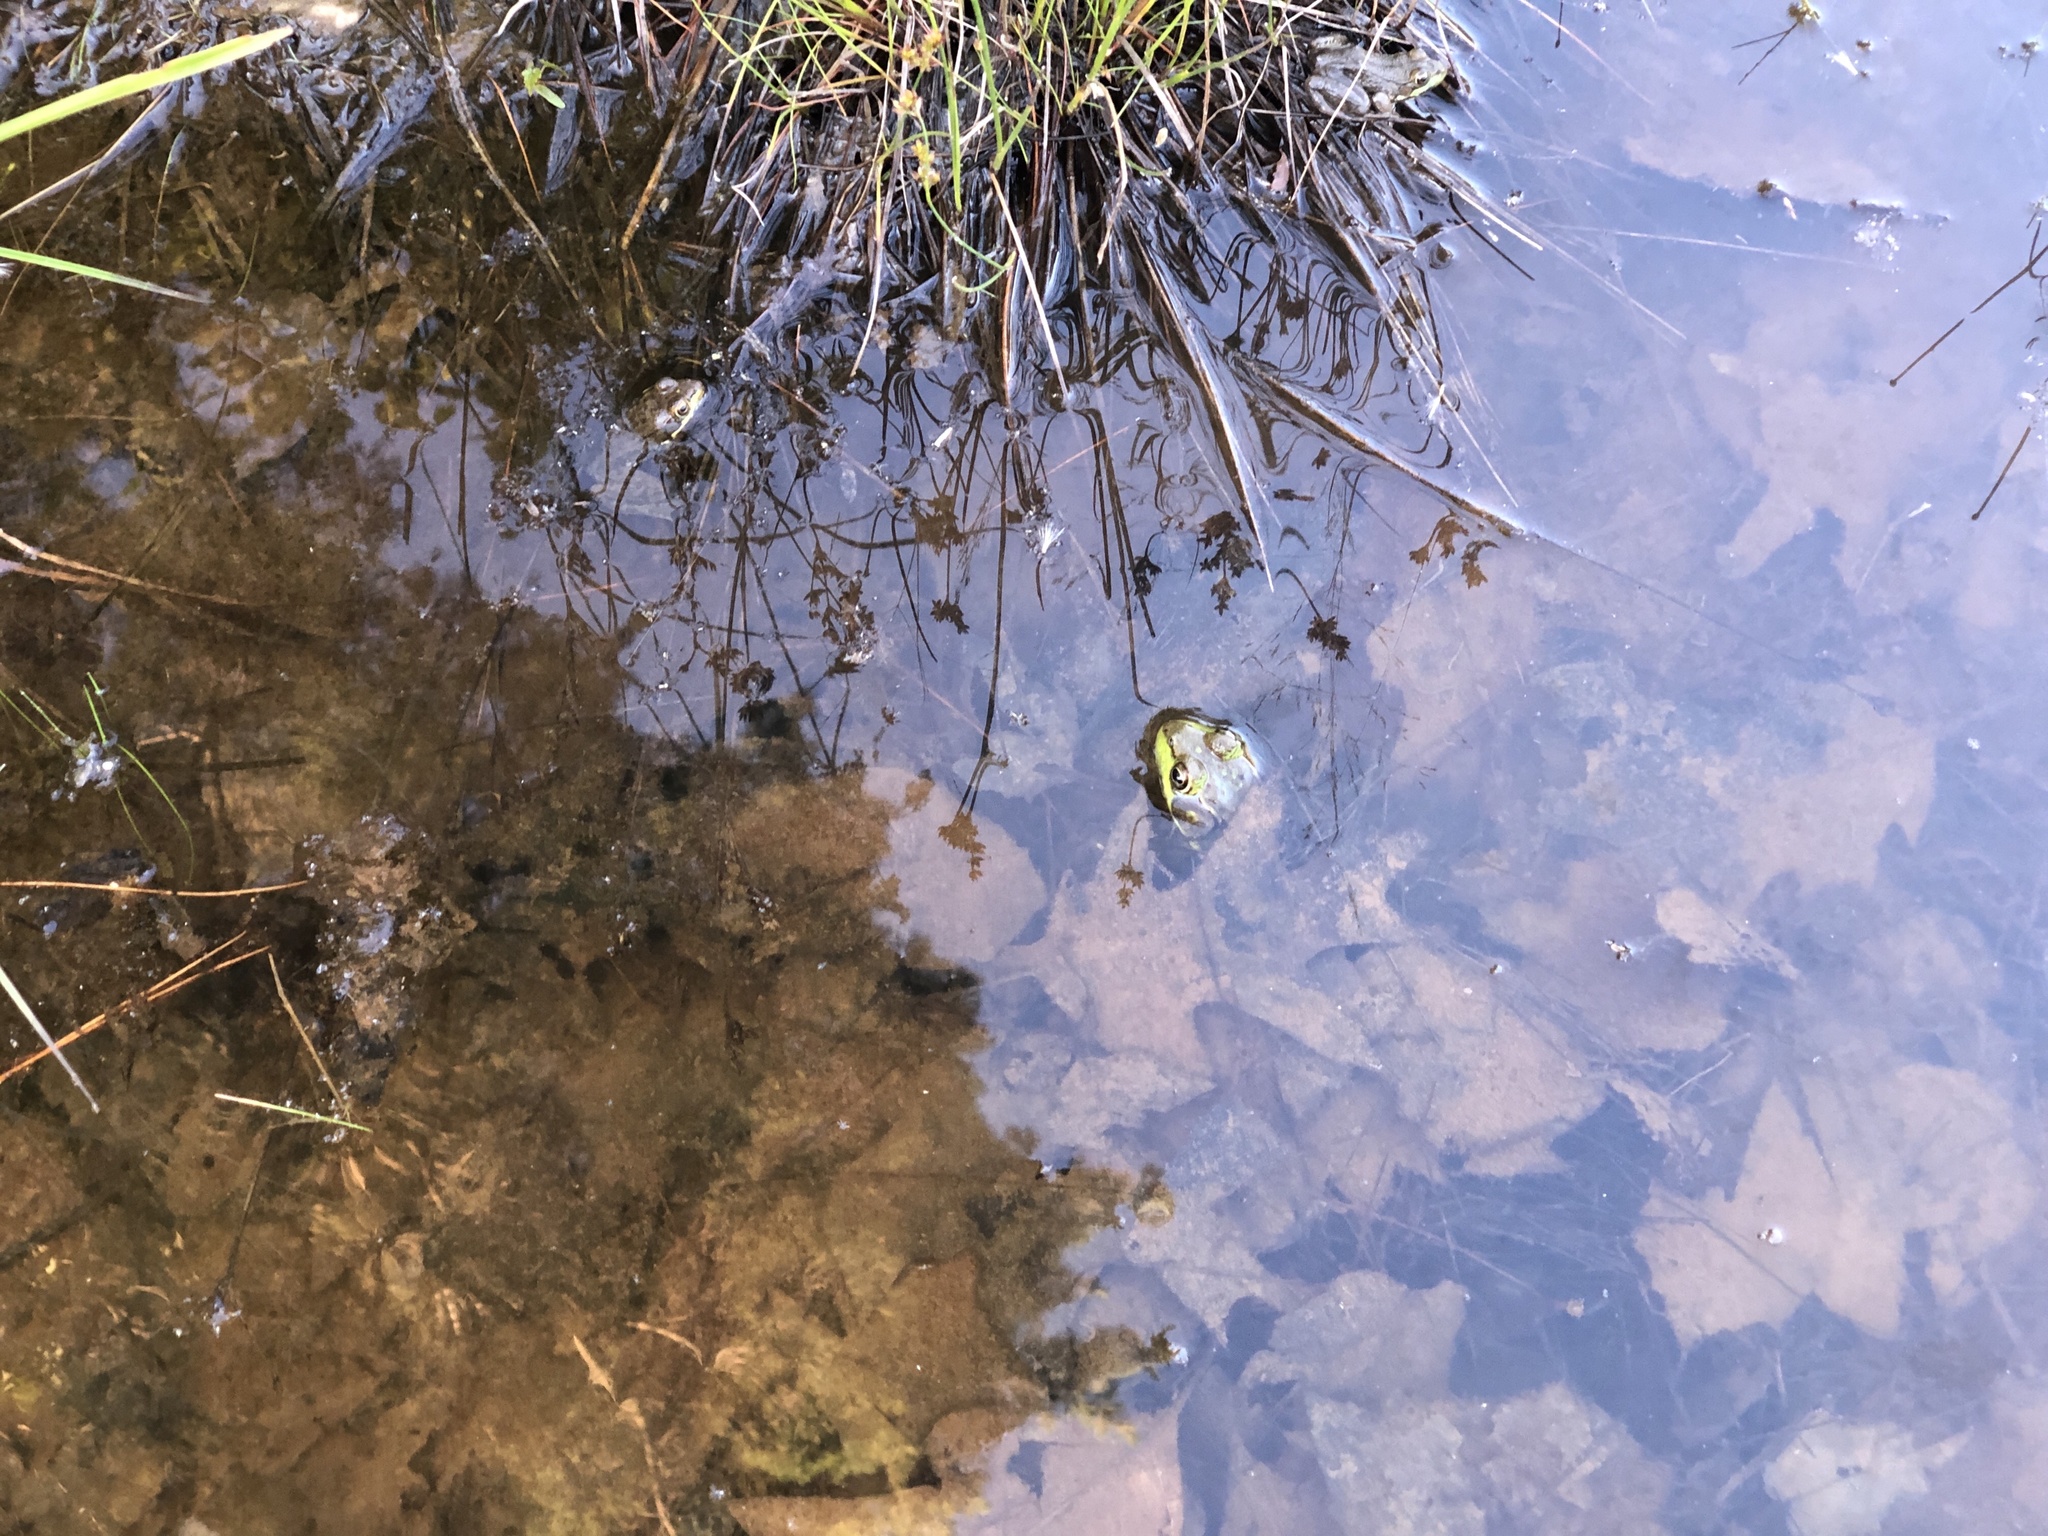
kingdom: Animalia
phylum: Chordata
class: Amphibia
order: Anura
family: Ranidae
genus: Lithobates
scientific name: Lithobates clamitans
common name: Green frog
